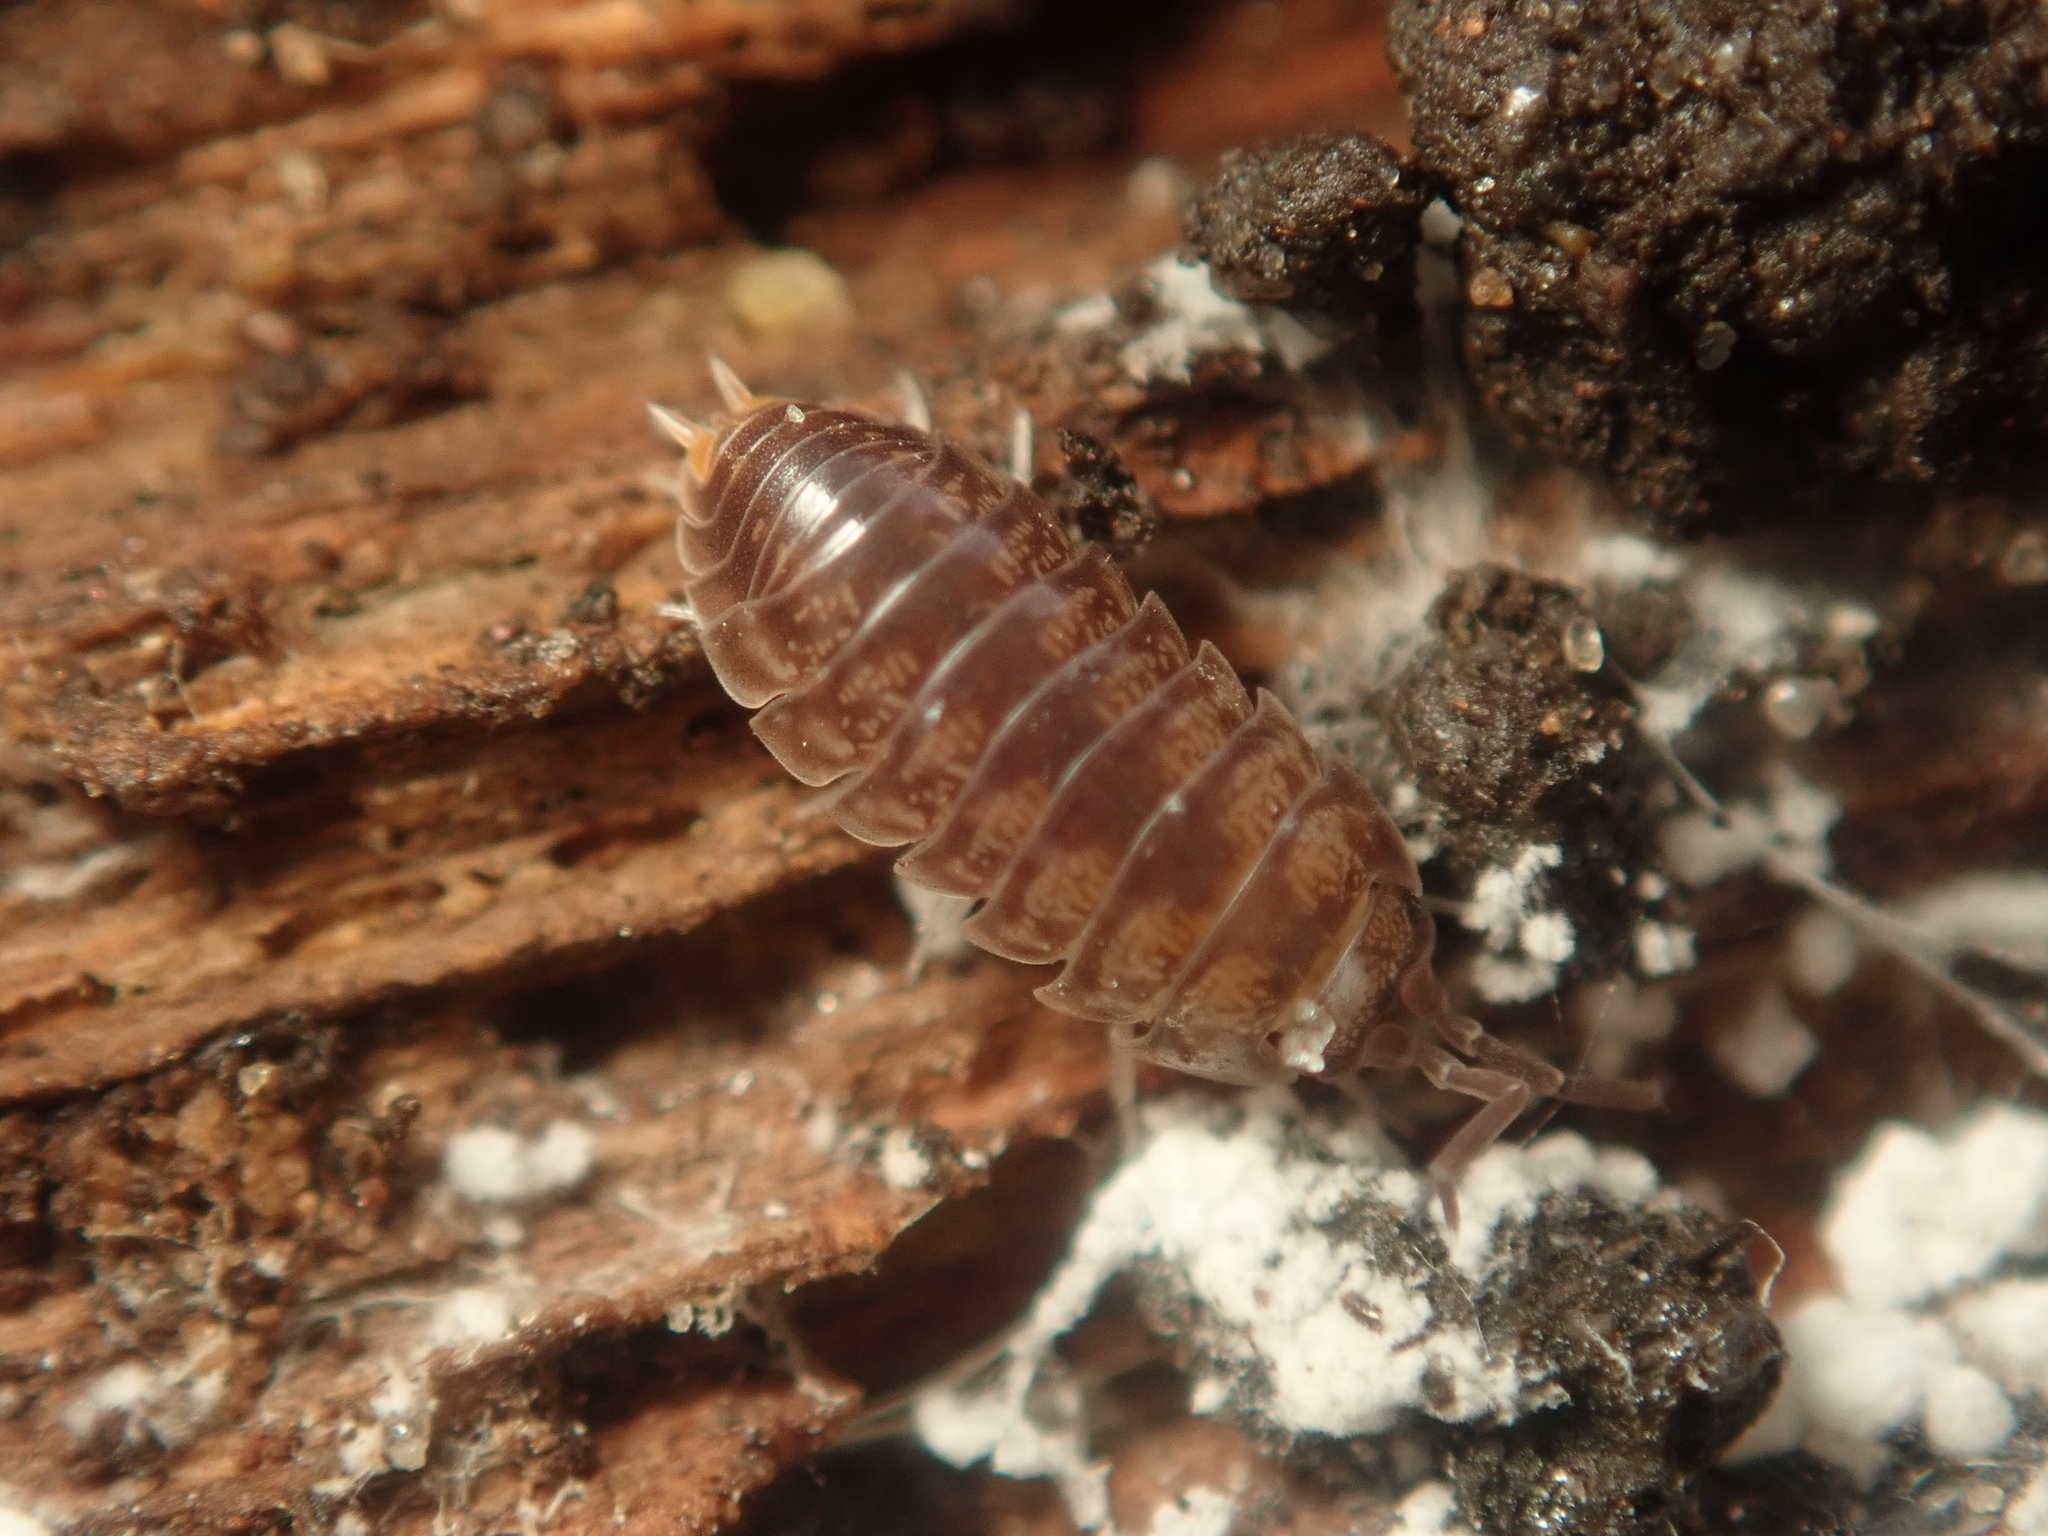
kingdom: Animalia
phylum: Arthropoda
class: Malacostraca
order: Isopoda
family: Cylisticidae
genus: Cylisticus
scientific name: Cylisticus convexus
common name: Curly woodlouse
